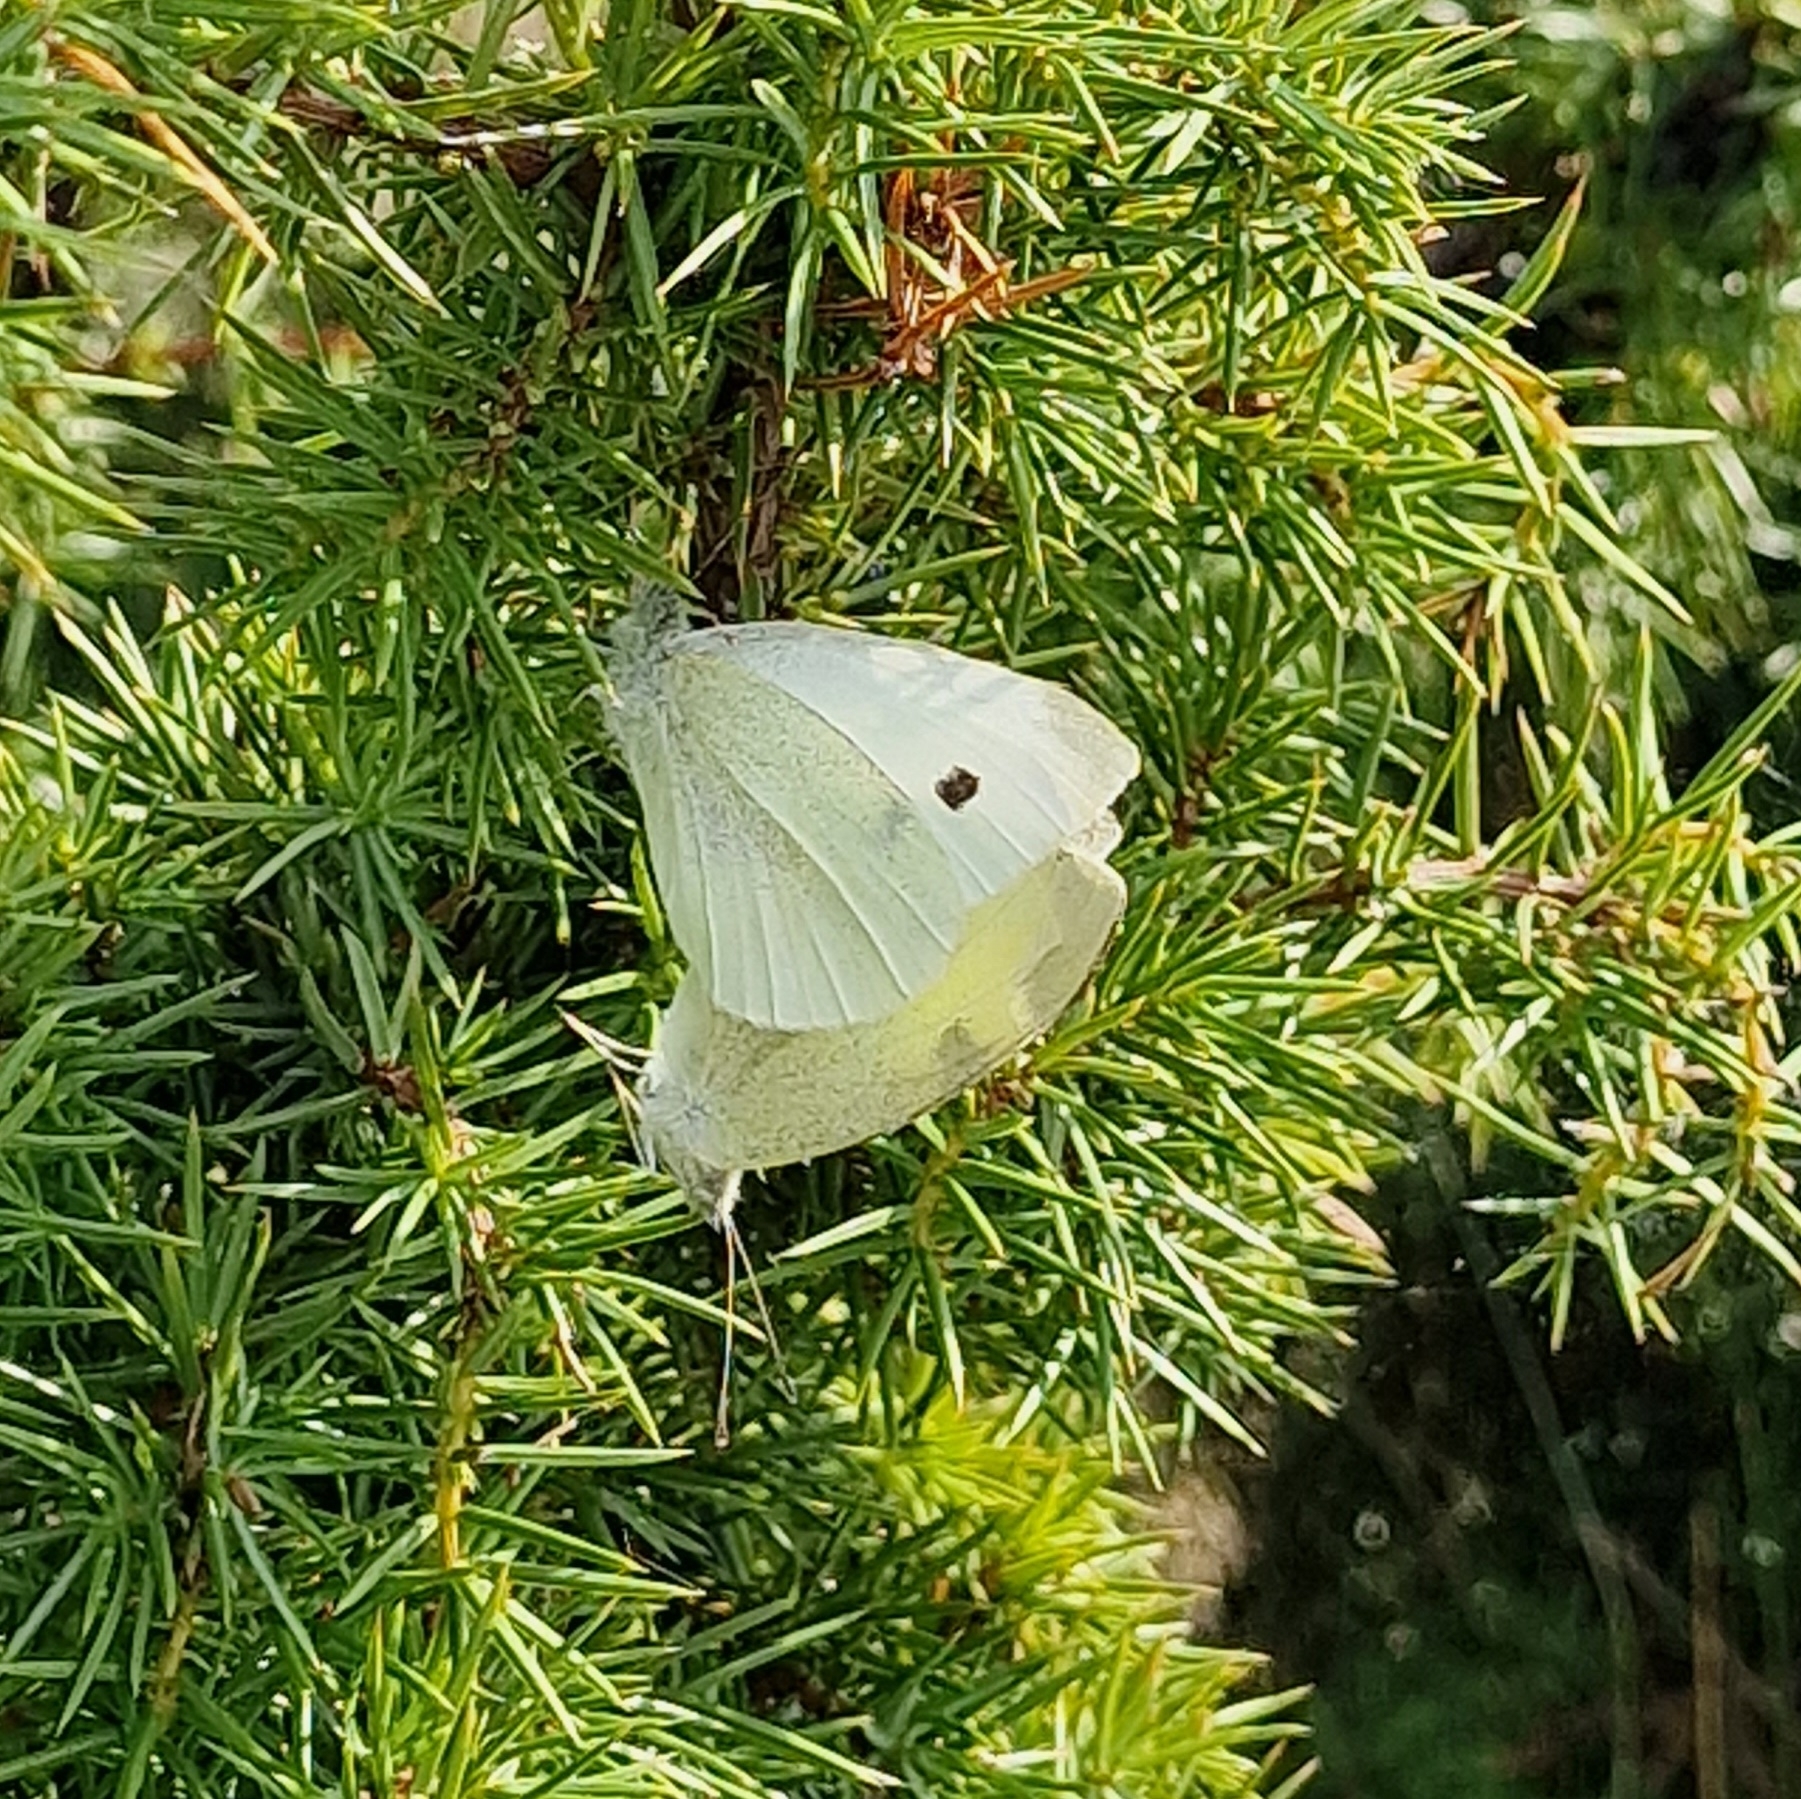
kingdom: Animalia
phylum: Arthropoda
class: Insecta
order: Lepidoptera
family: Pieridae
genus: Pieris
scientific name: Pieris rapae
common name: Small white
